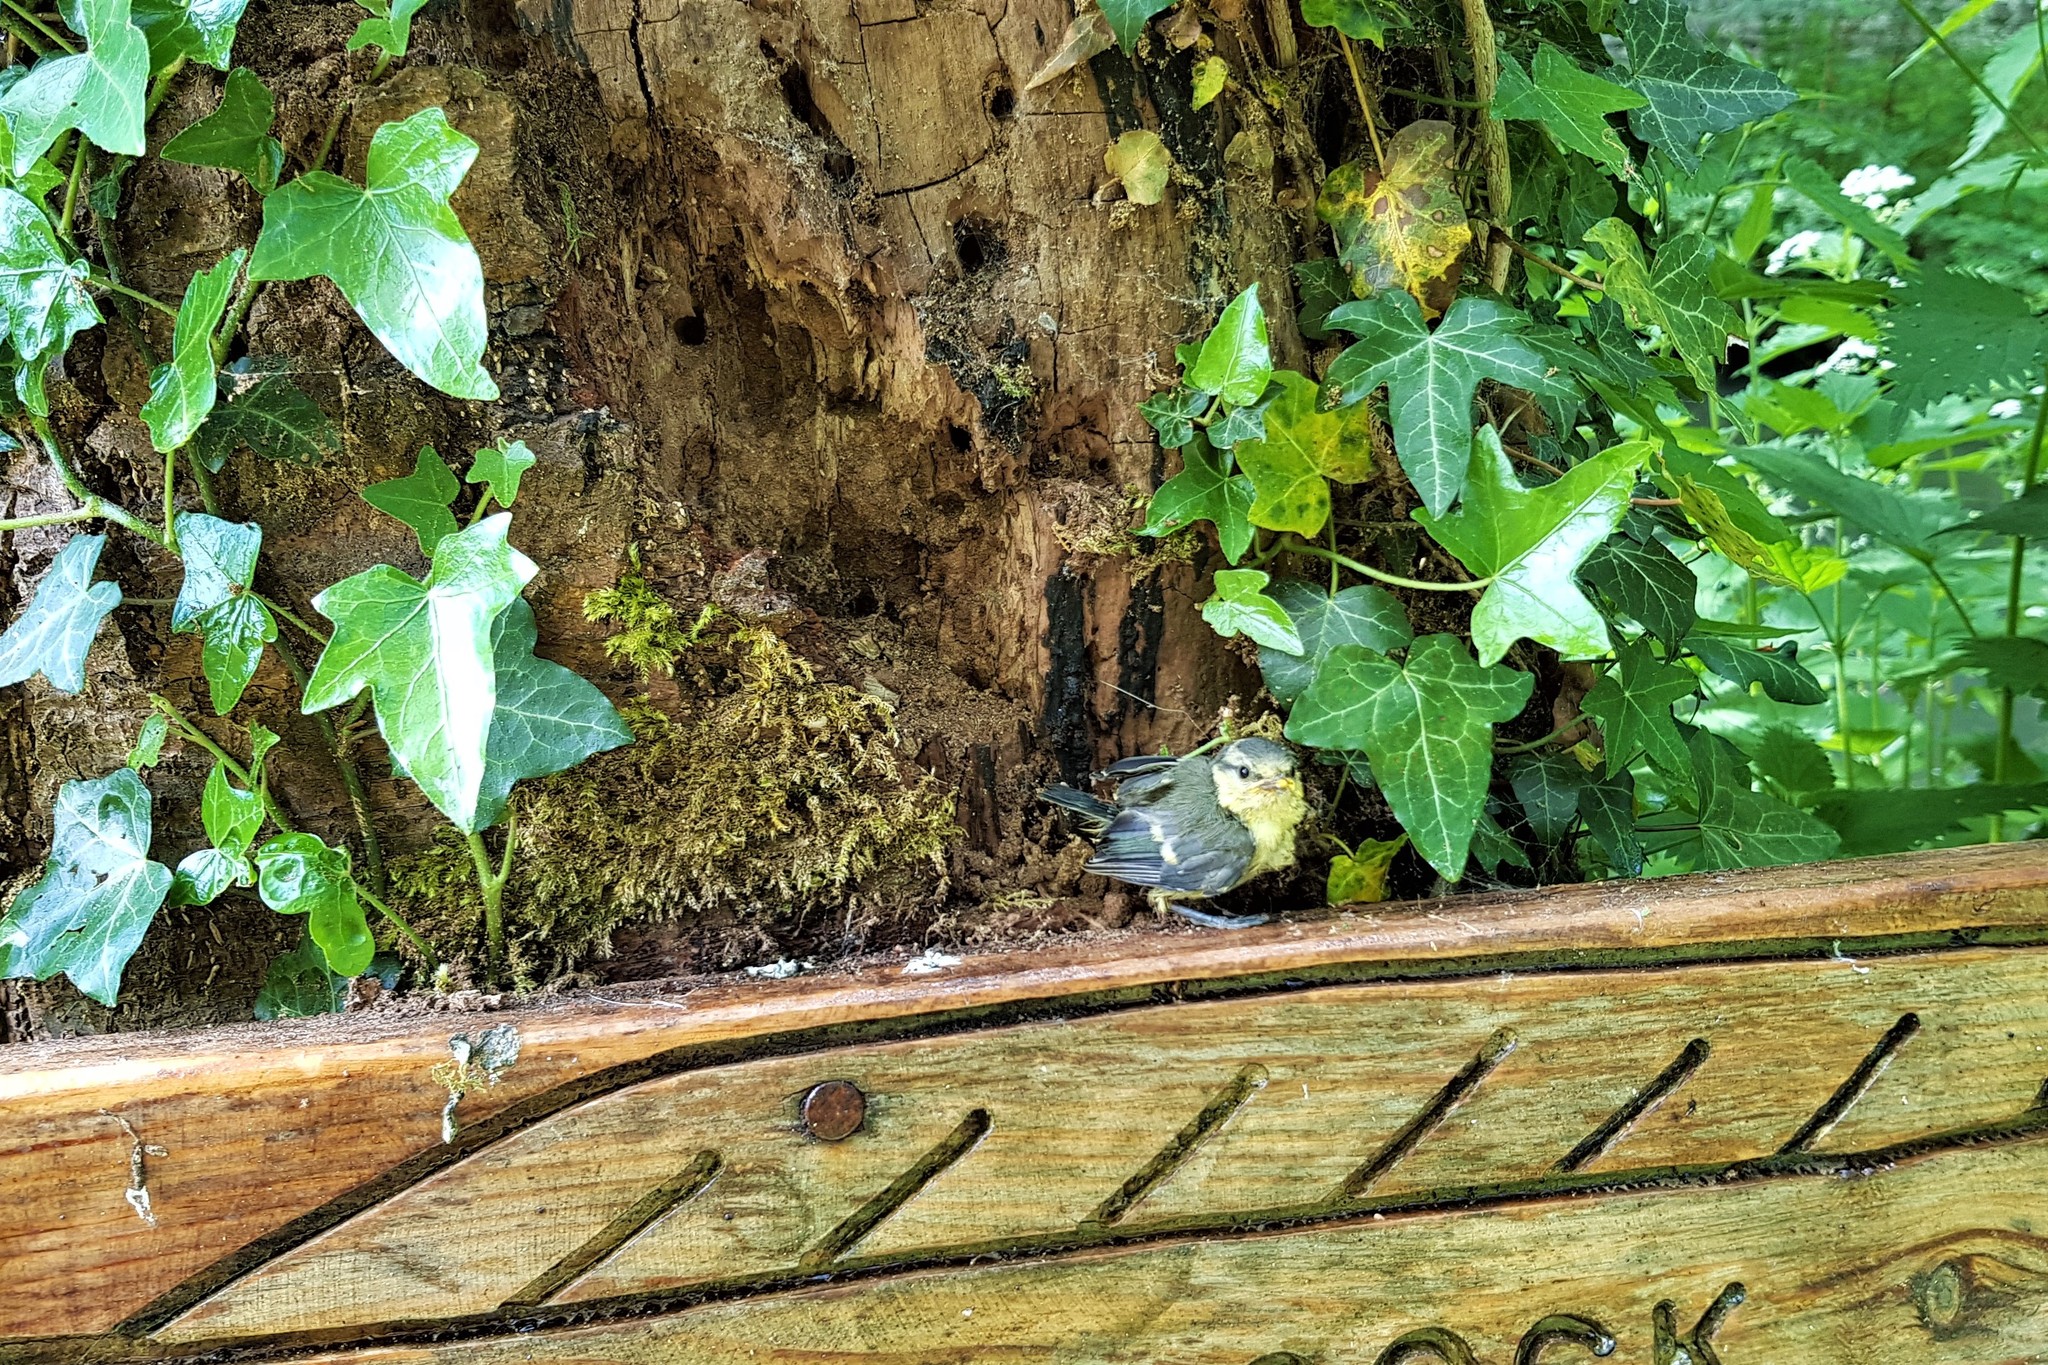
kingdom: Animalia
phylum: Chordata
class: Aves
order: Passeriformes
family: Paridae
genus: Cyanistes
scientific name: Cyanistes caeruleus
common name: Eurasian blue tit
